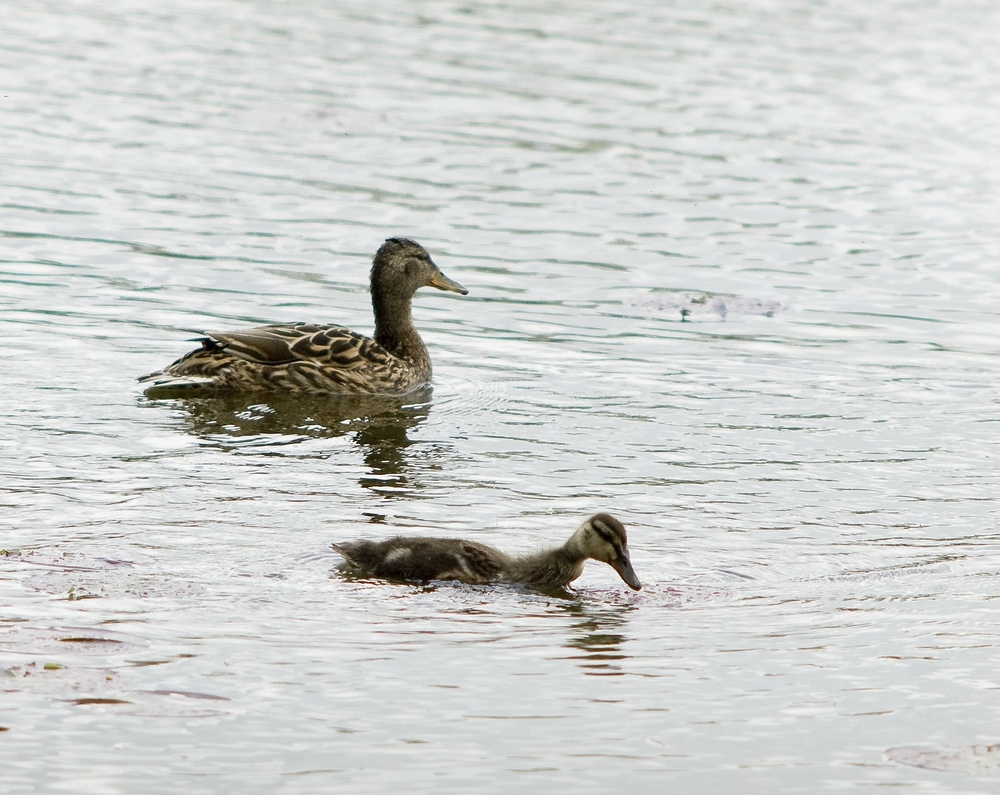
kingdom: Animalia
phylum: Chordata
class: Aves
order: Anseriformes
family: Anatidae
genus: Anas
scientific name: Anas platyrhynchos
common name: Mallard
